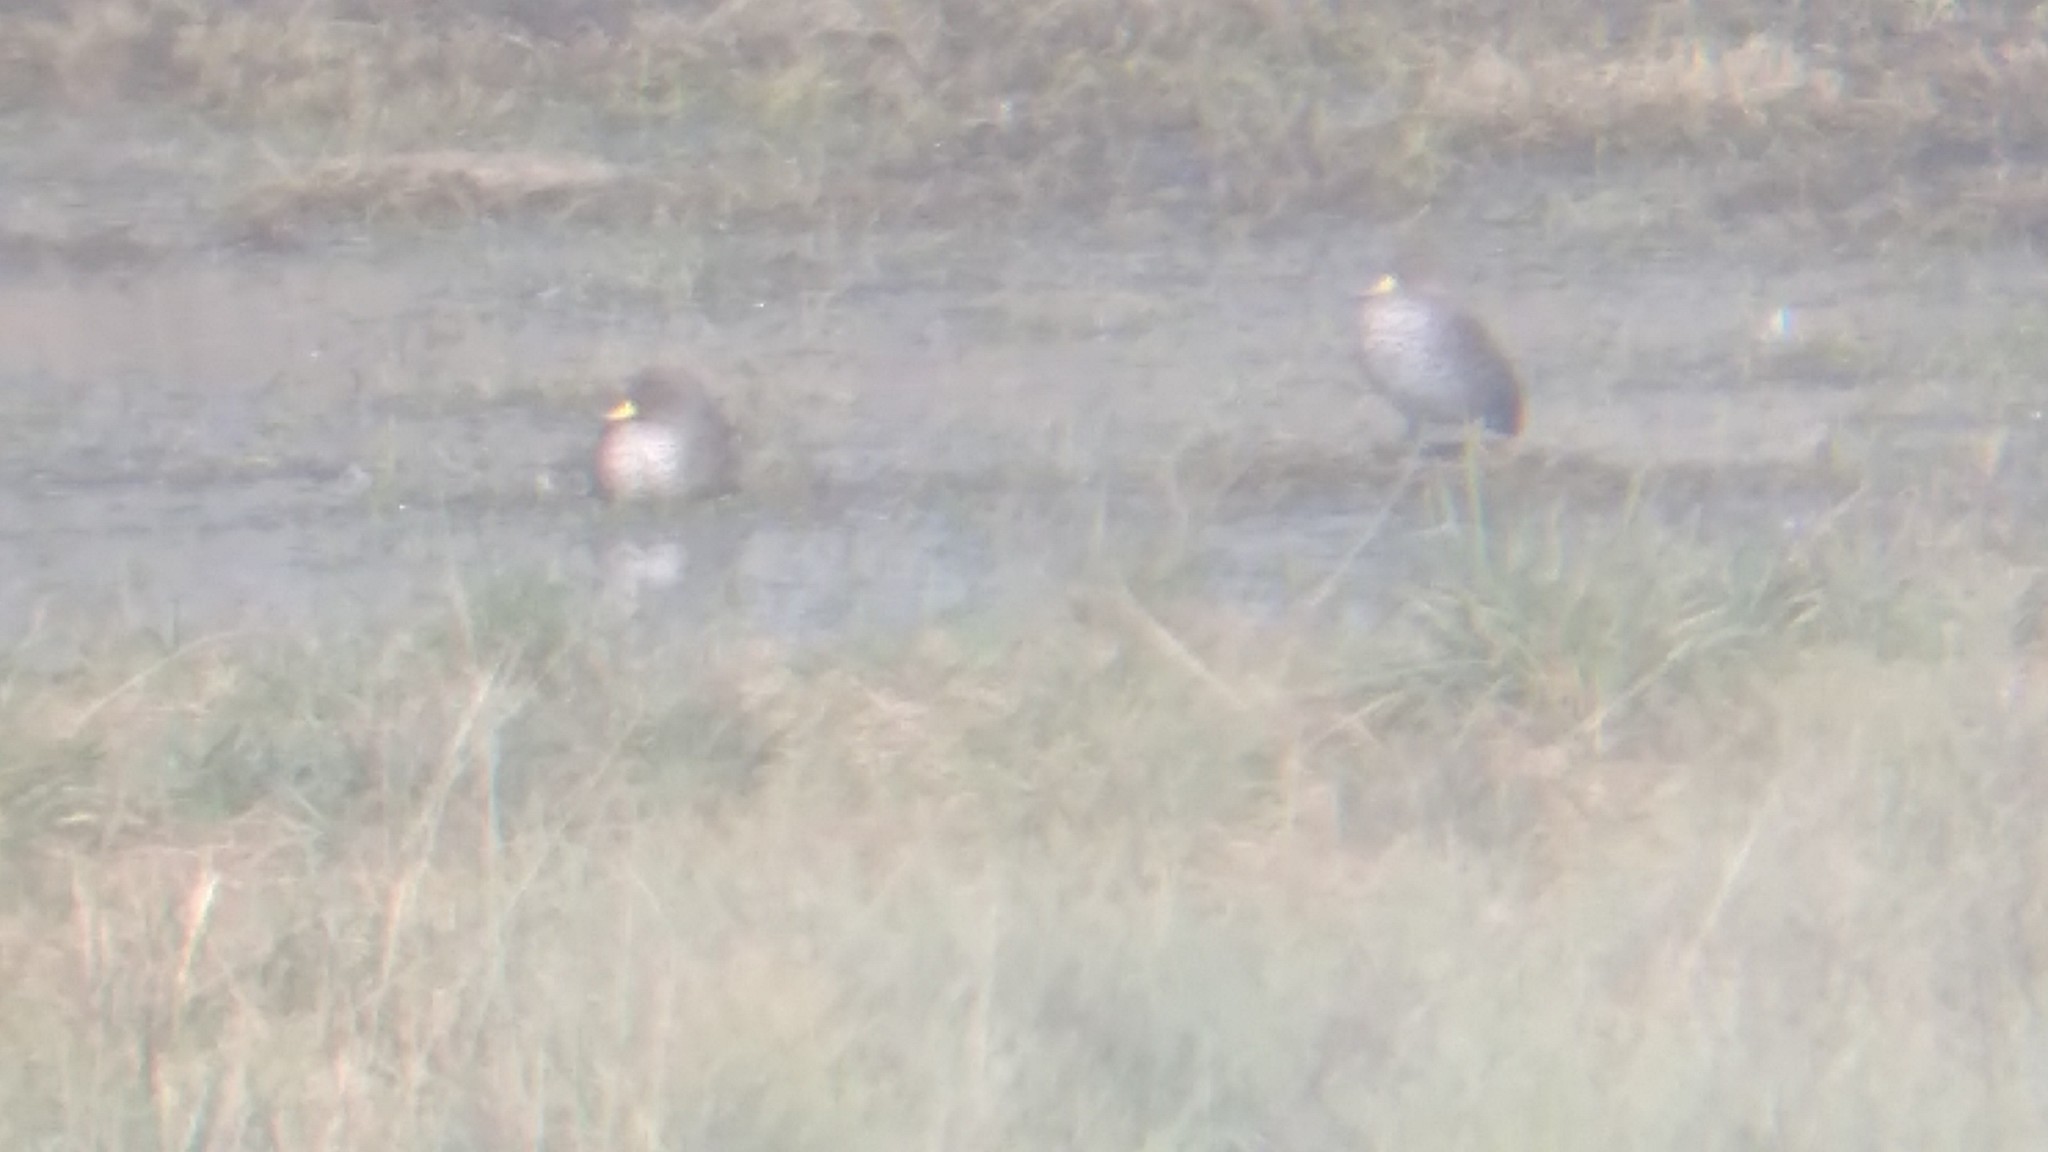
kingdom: Animalia
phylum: Chordata
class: Aves
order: Anseriformes
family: Anatidae
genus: Anas
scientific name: Anas flavirostris
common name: Yellow-billed teal
